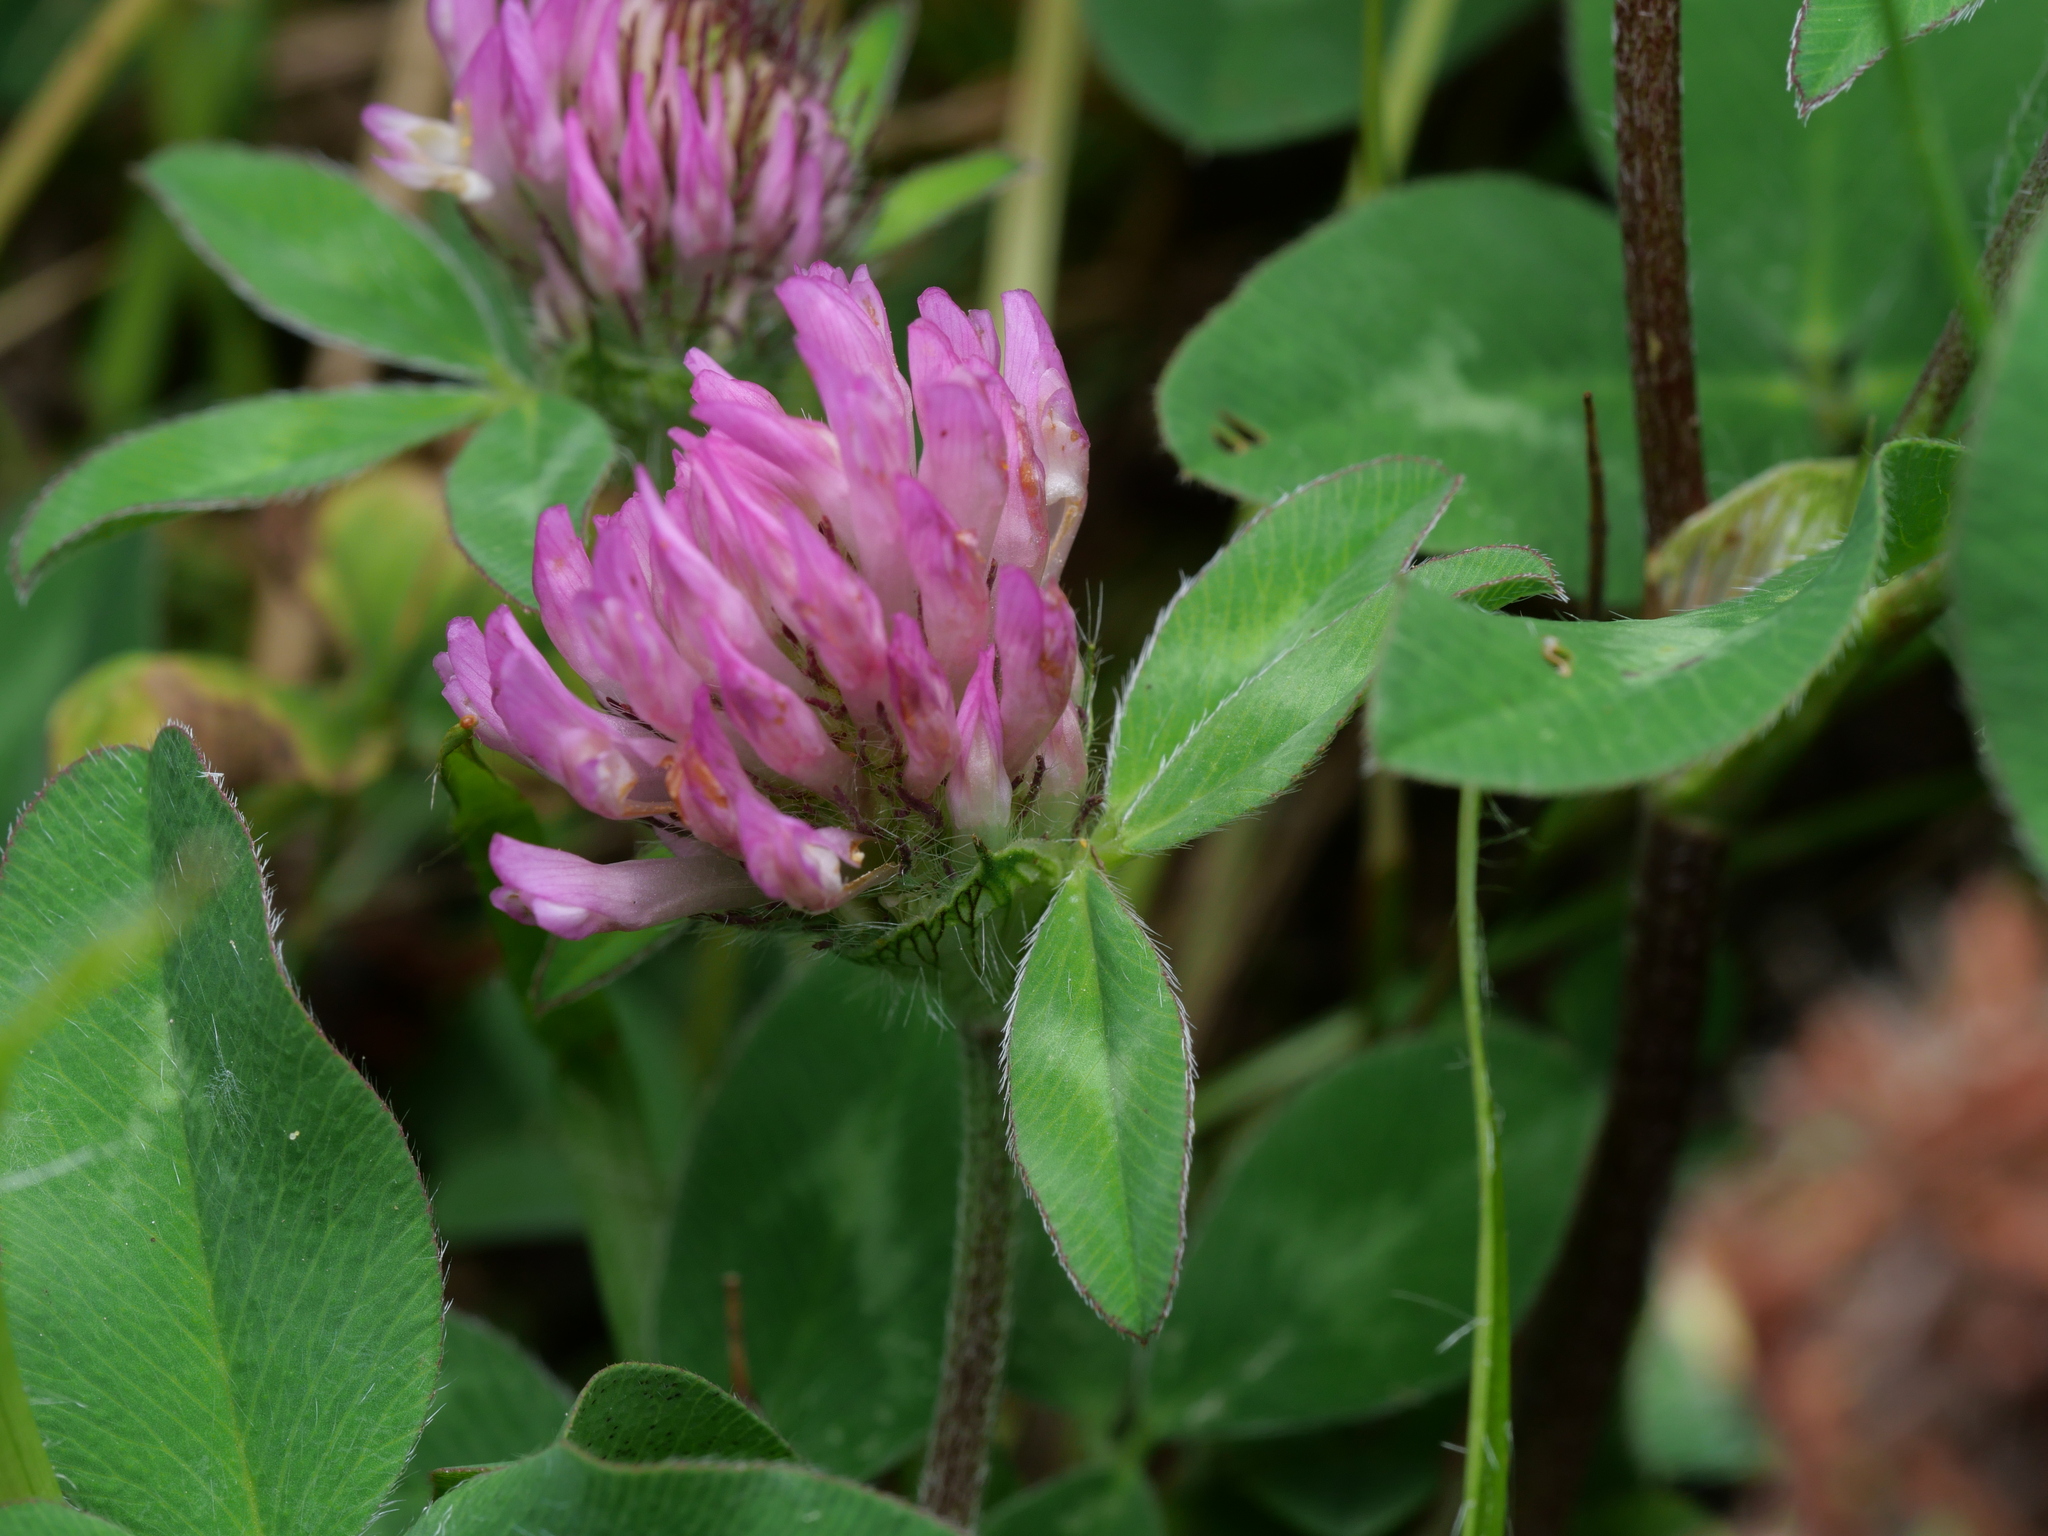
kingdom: Plantae
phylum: Tracheophyta
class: Magnoliopsida
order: Fabales
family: Fabaceae
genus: Trifolium
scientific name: Trifolium pratense
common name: Red clover
